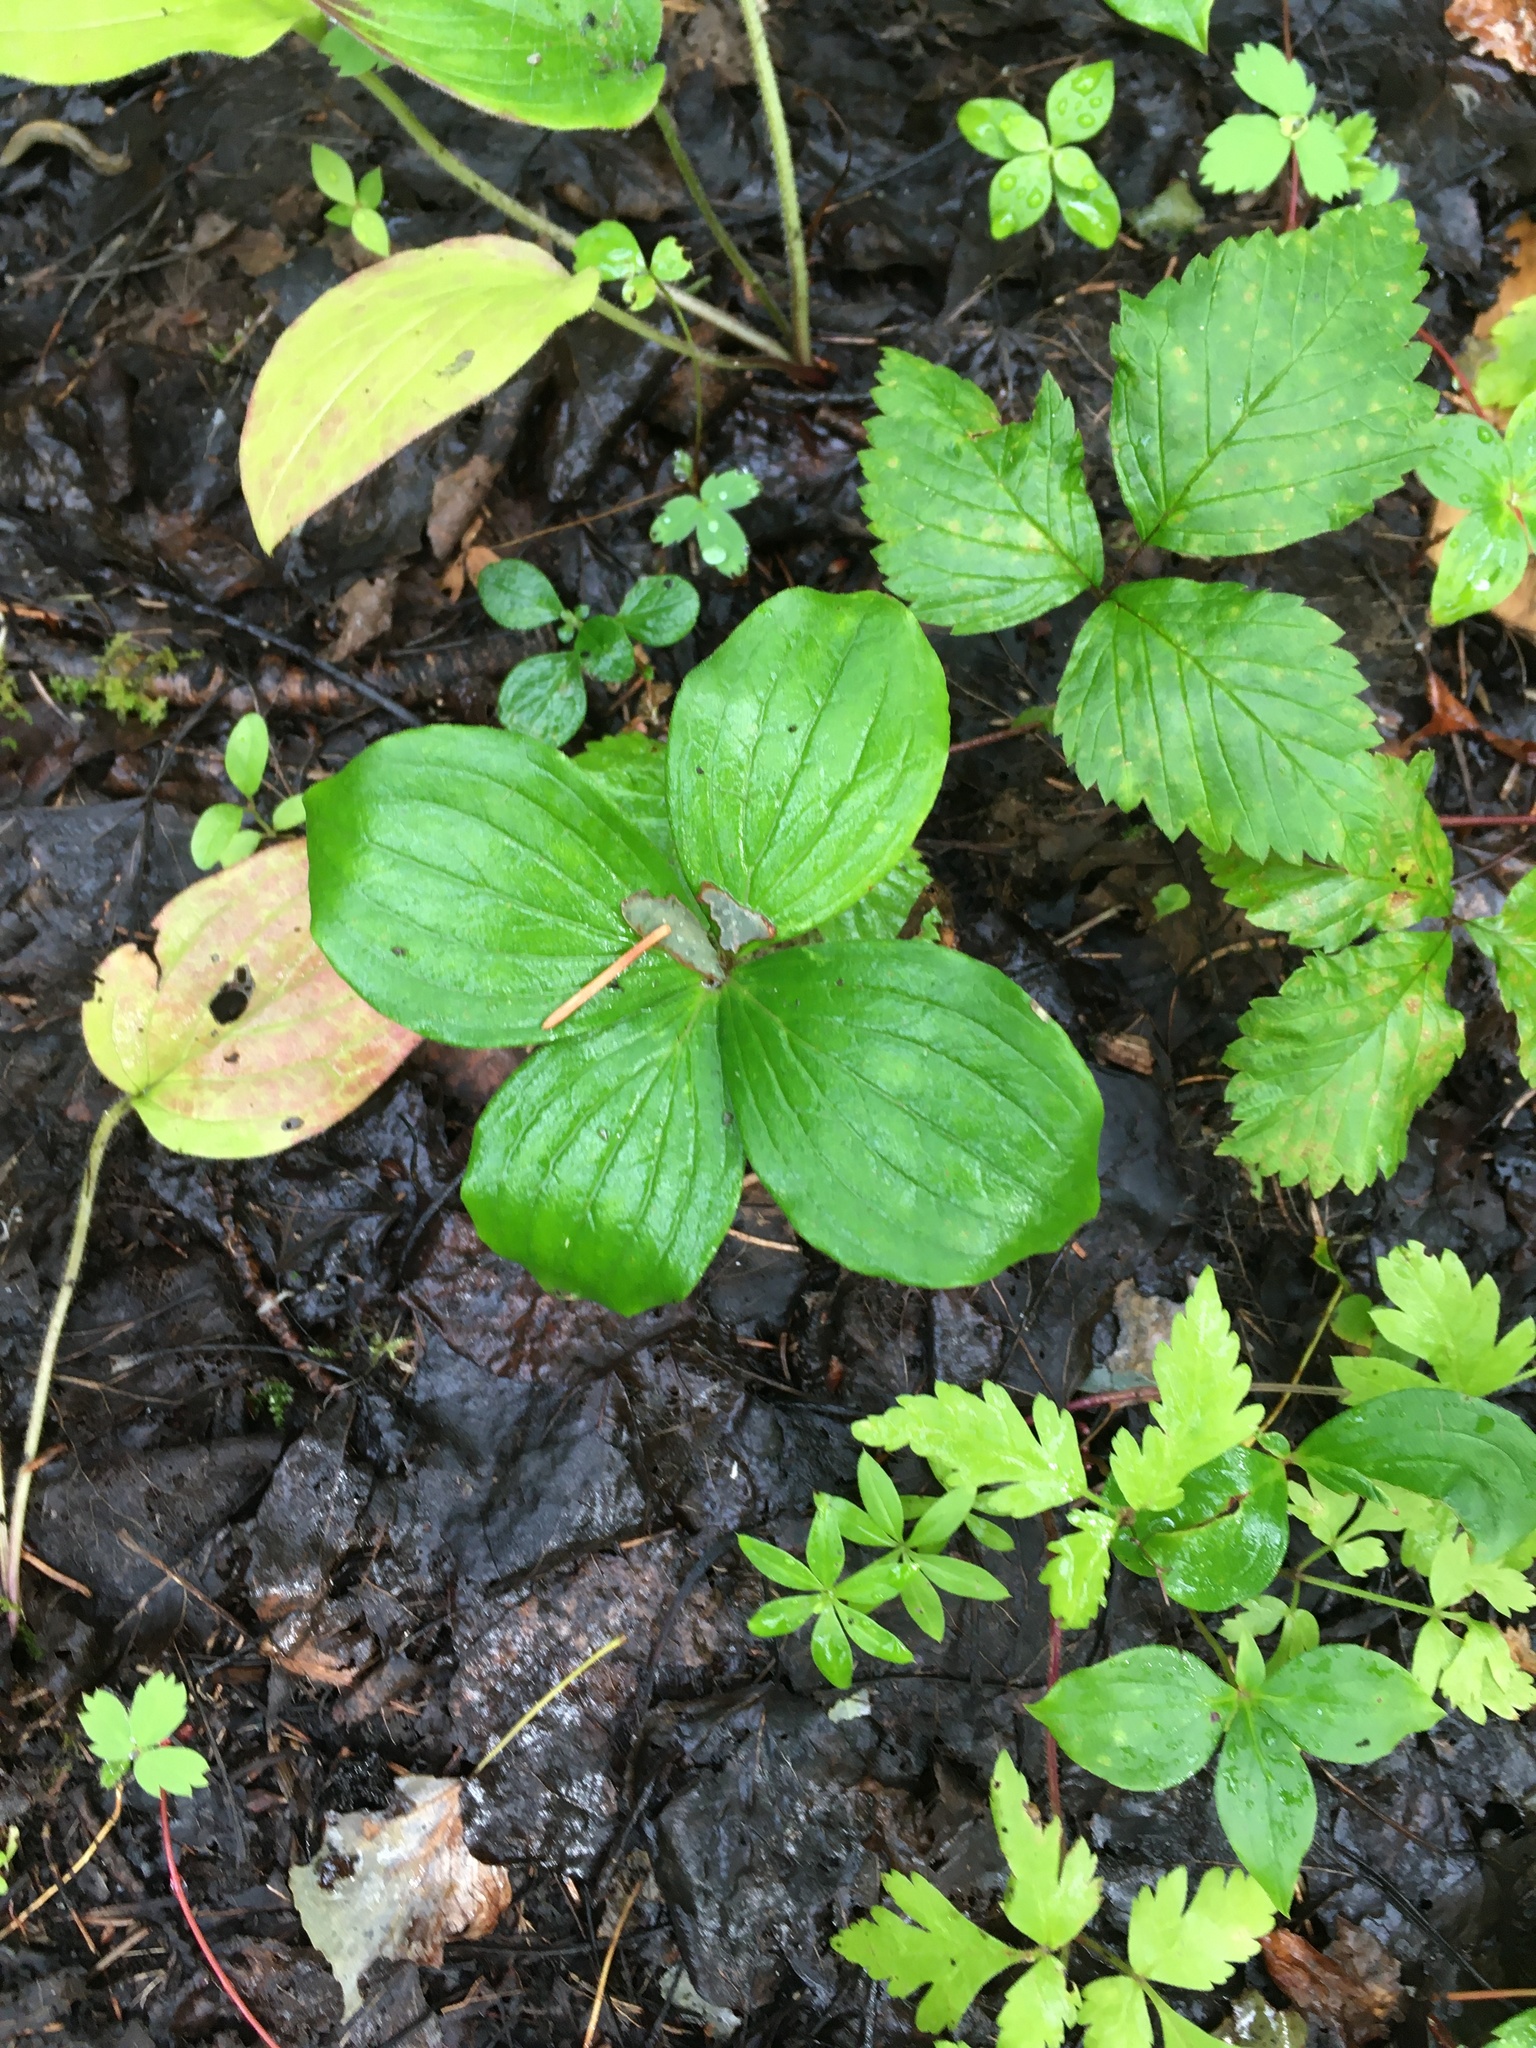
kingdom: Plantae
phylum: Tracheophyta
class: Magnoliopsida
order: Cornales
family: Cornaceae
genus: Cornus
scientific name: Cornus canadensis
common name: Creeping dogwood
